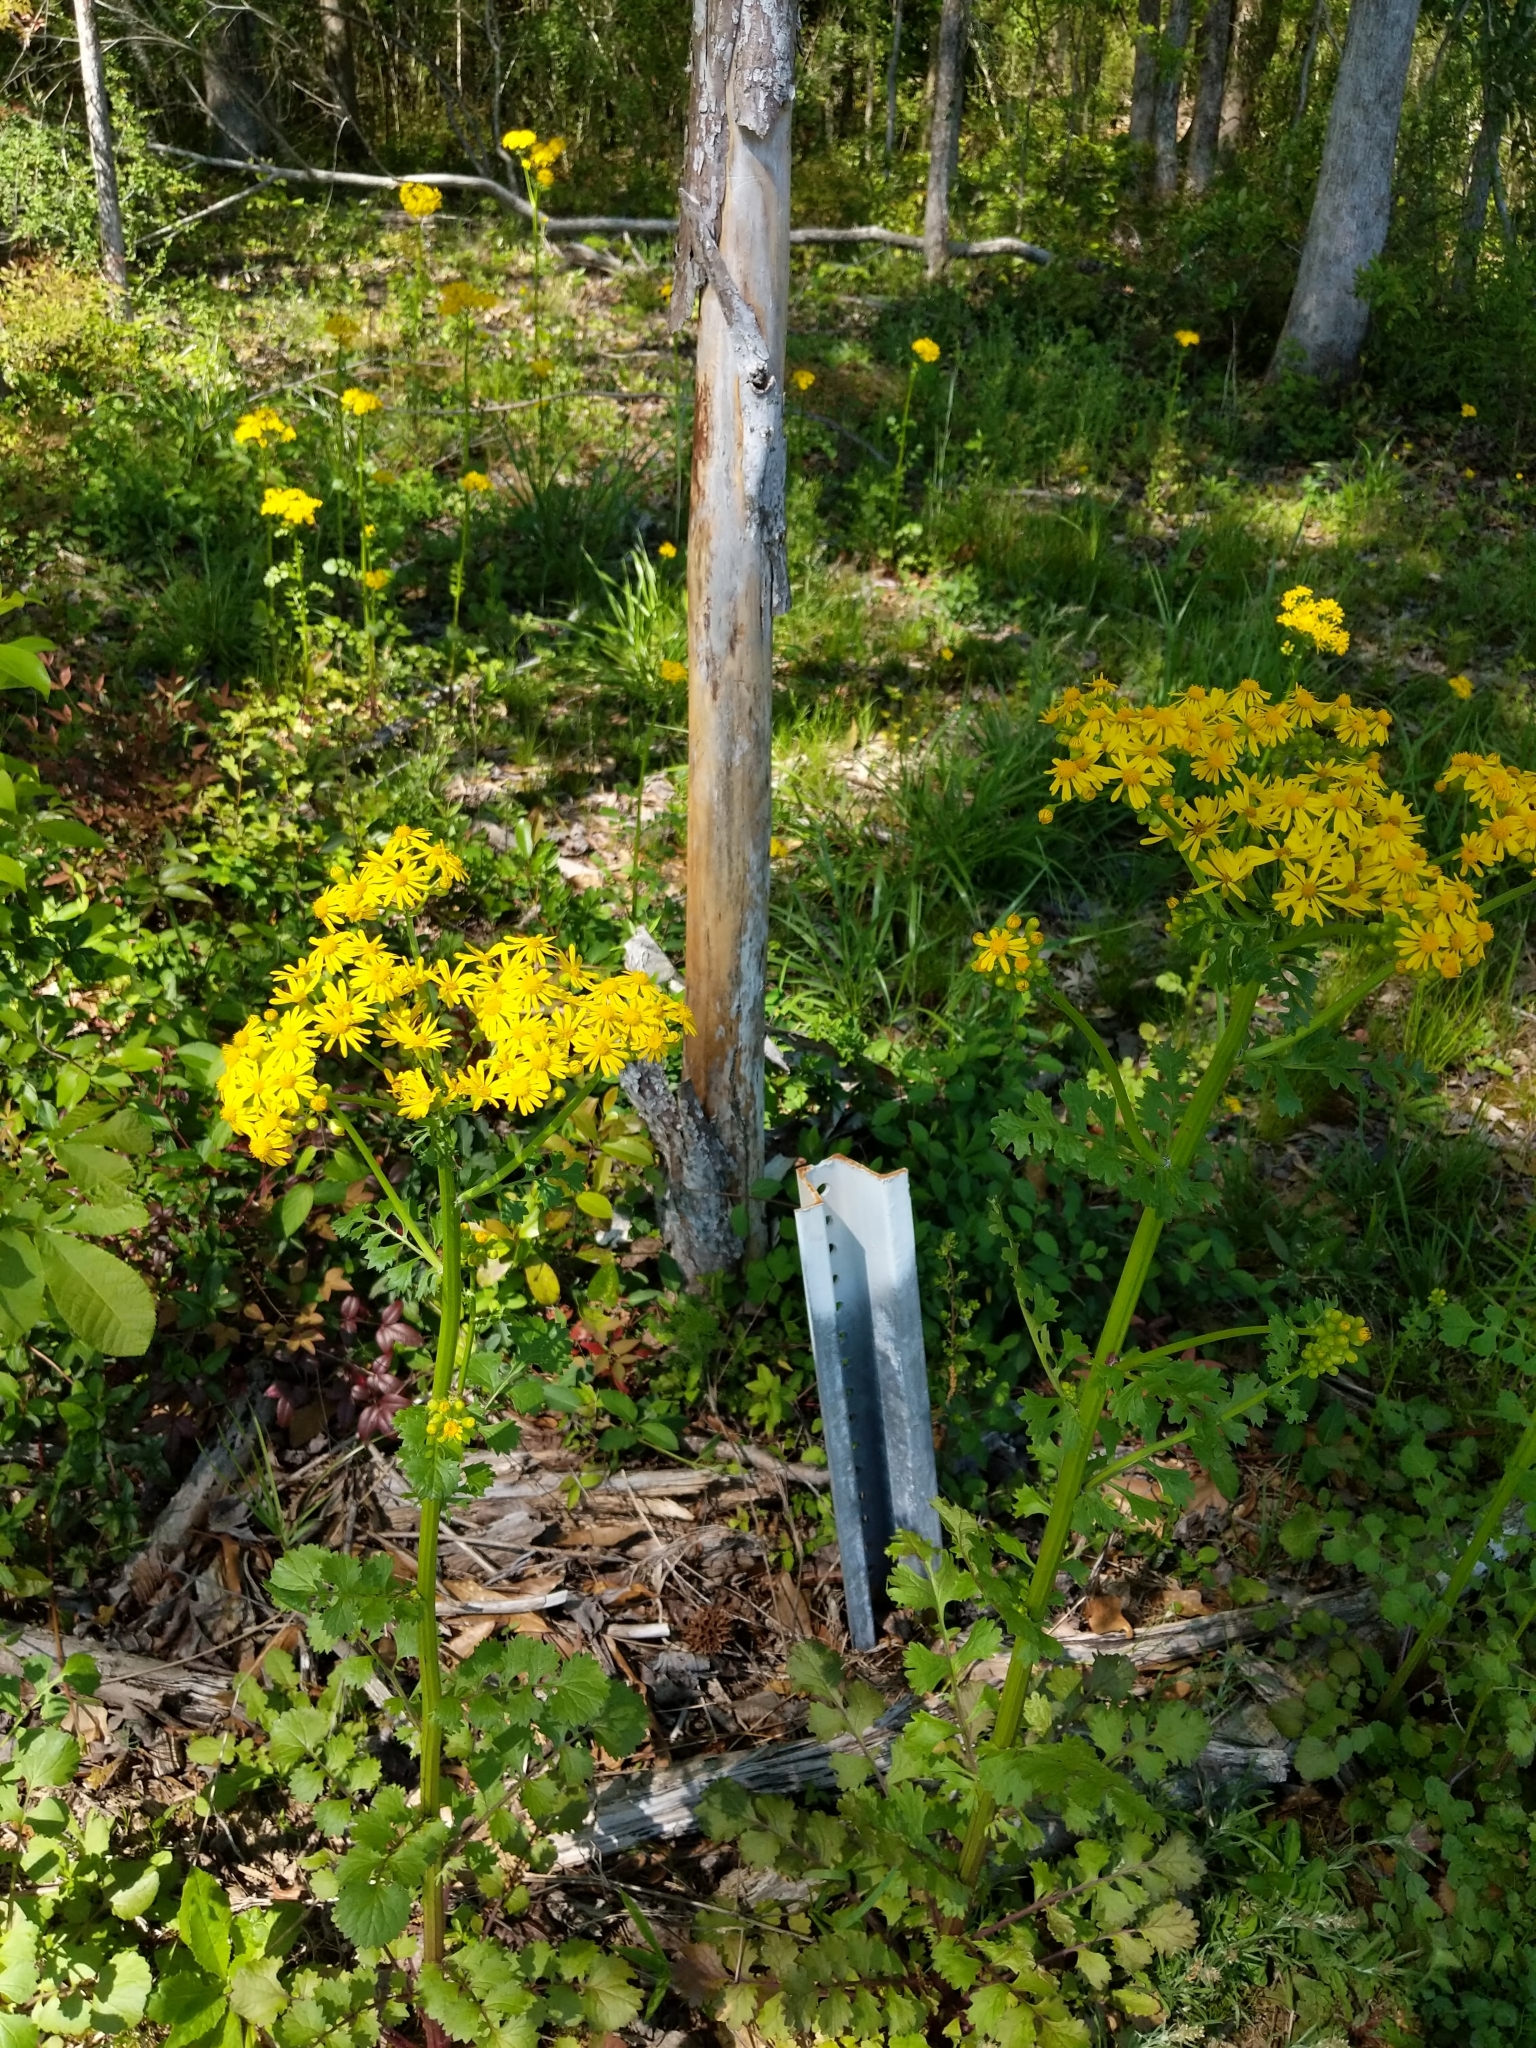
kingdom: Plantae
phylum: Tracheophyta
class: Magnoliopsida
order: Asterales
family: Asteraceae
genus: Packera
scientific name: Packera glabella
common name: Butterweed
